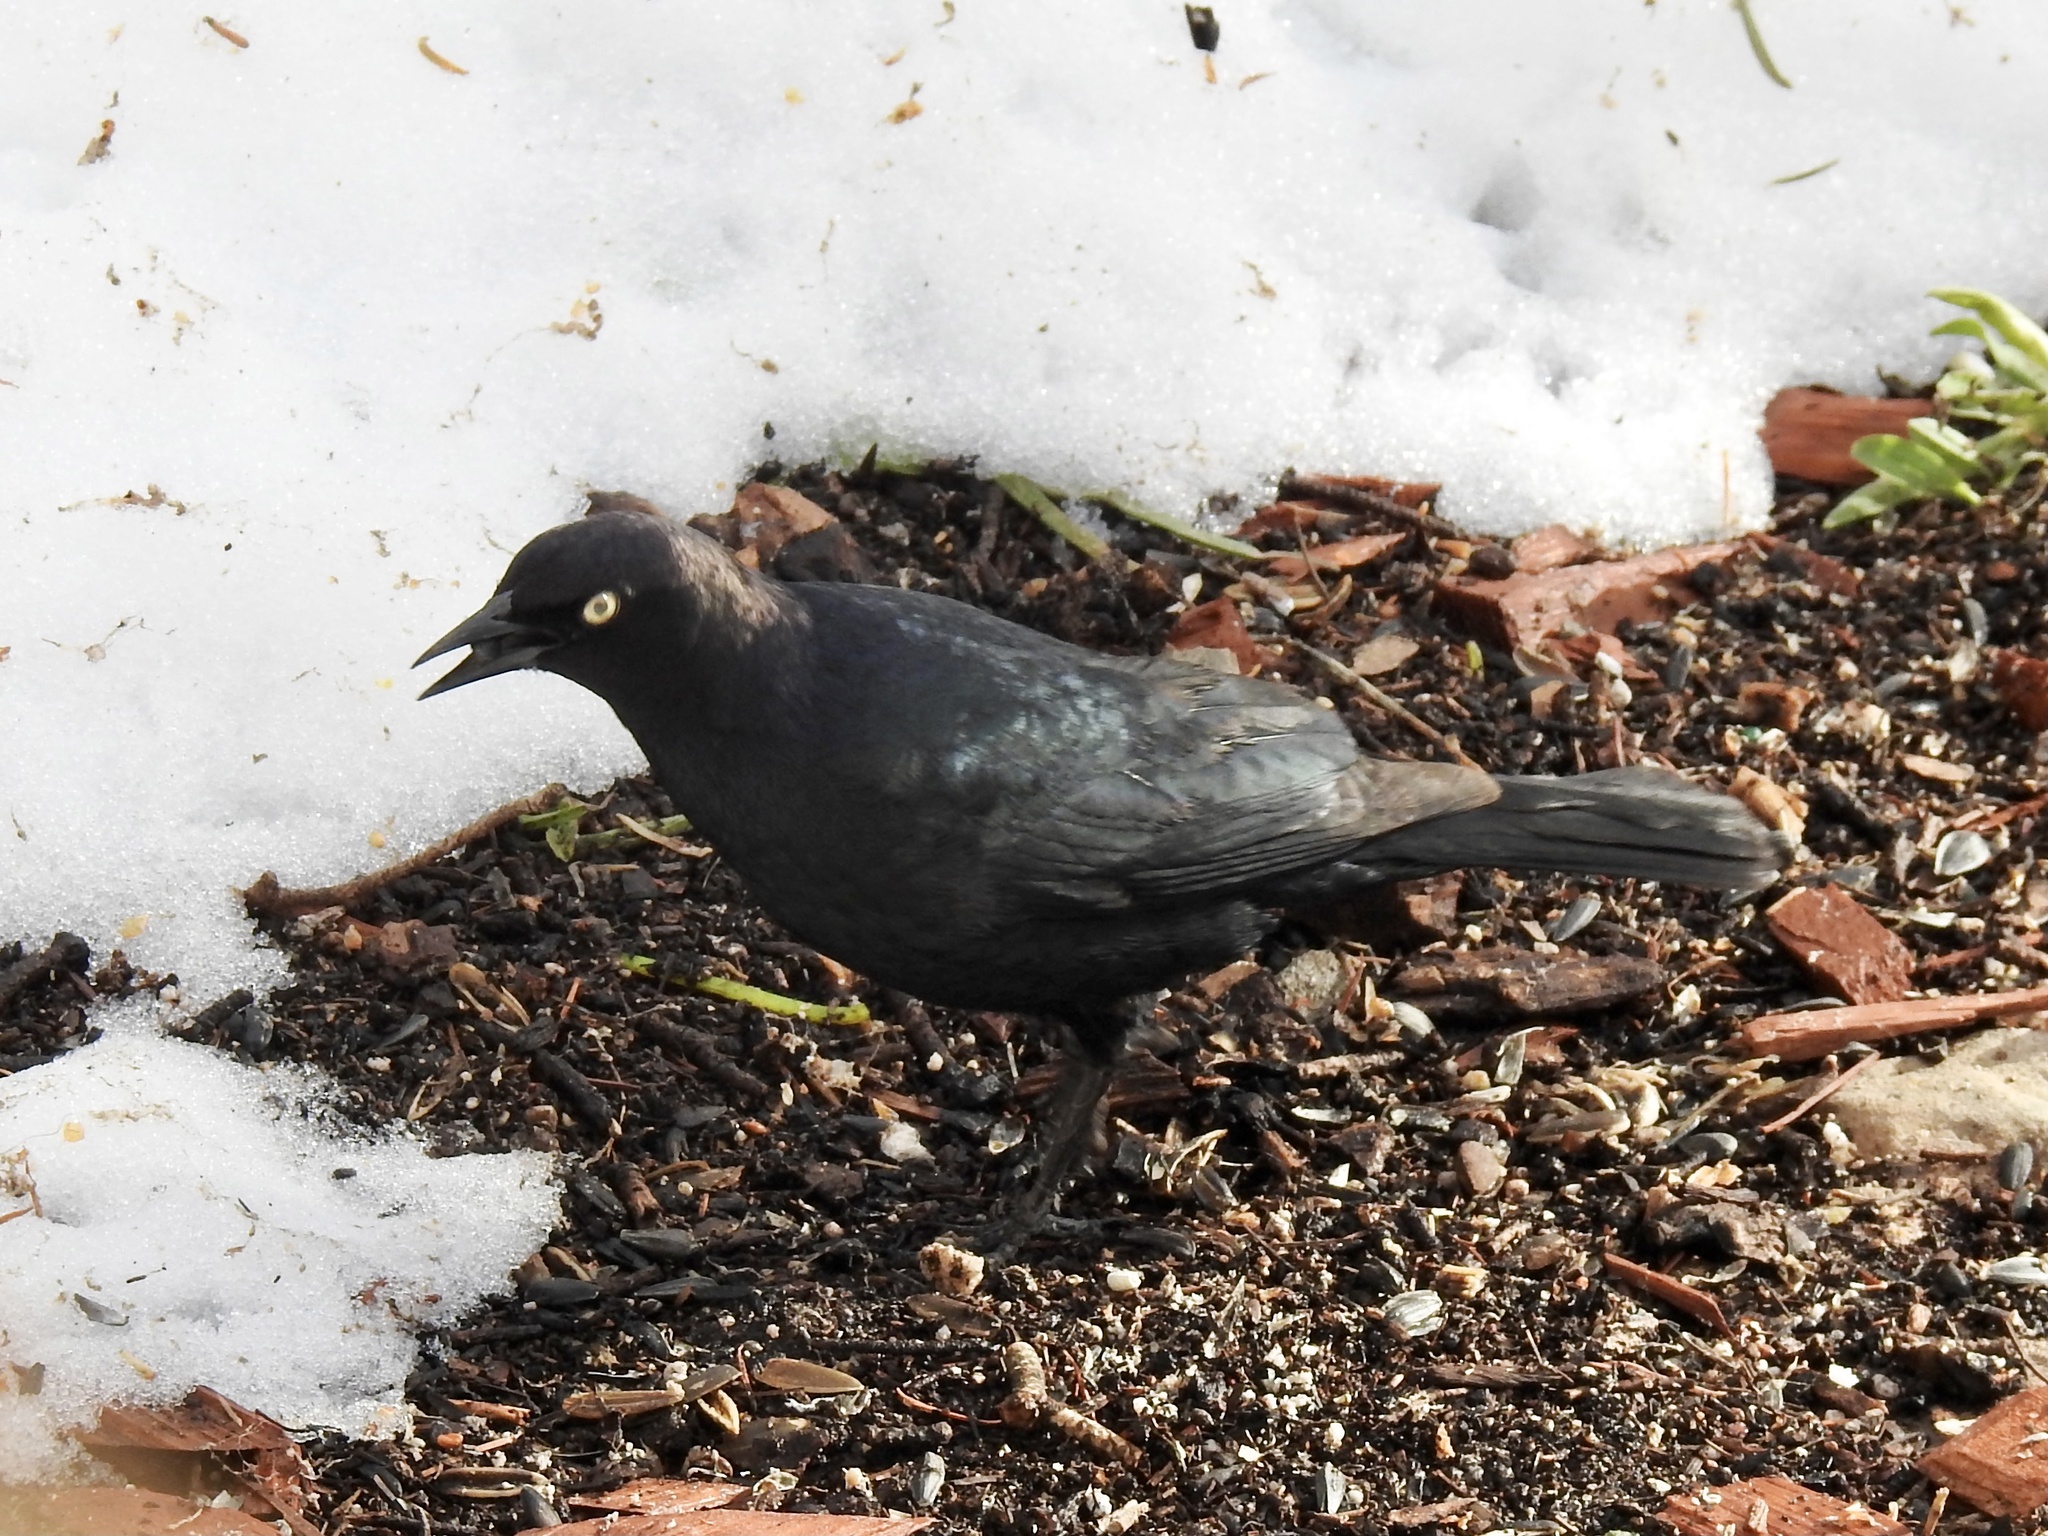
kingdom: Animalia
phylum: Chordata
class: Aves
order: Passeriformes
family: Icteridae
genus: Euphagus
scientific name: Euphagus cyanocephalus
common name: Brewer's blackbird
